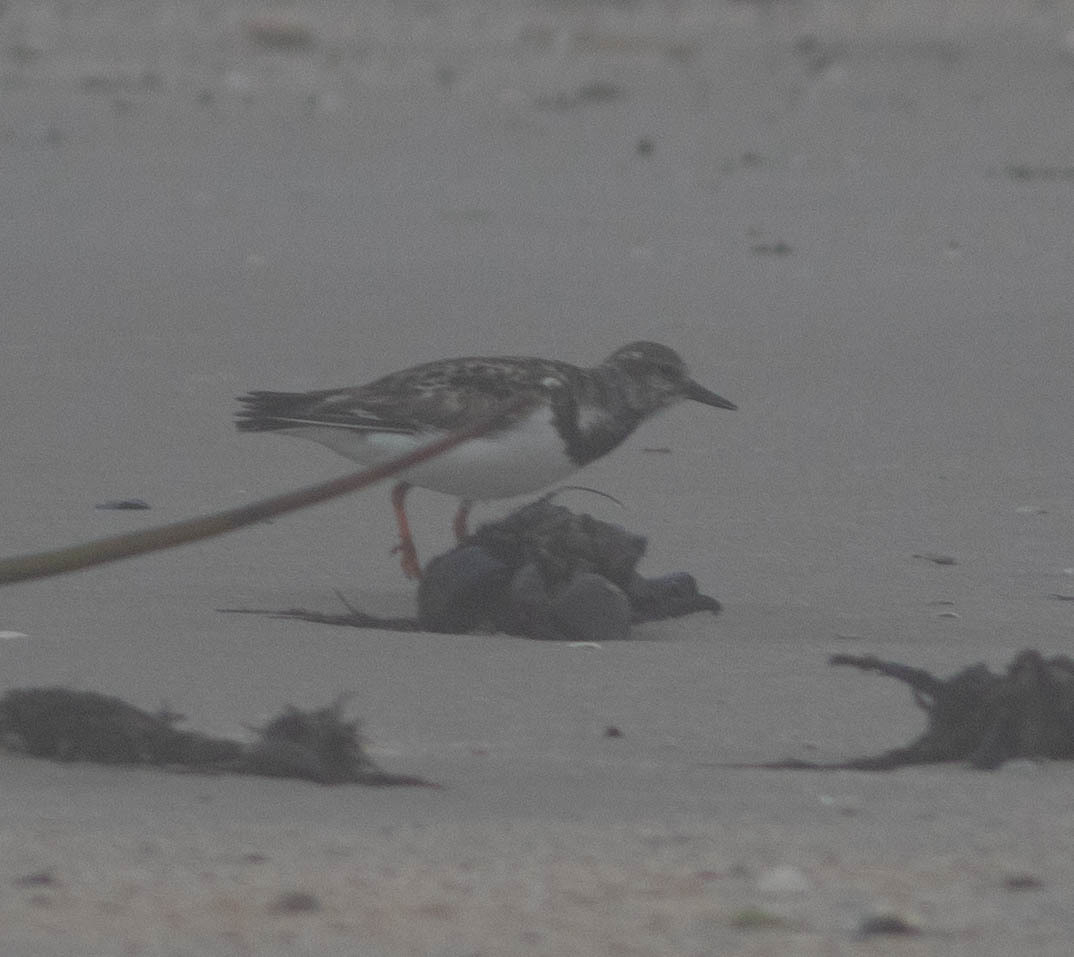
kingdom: Animalia
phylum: Chordata
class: Aves
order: Charadriiformes
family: Scolopacidae
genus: Arenaria
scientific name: Arenaria interpres
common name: Ruddy turnstone
